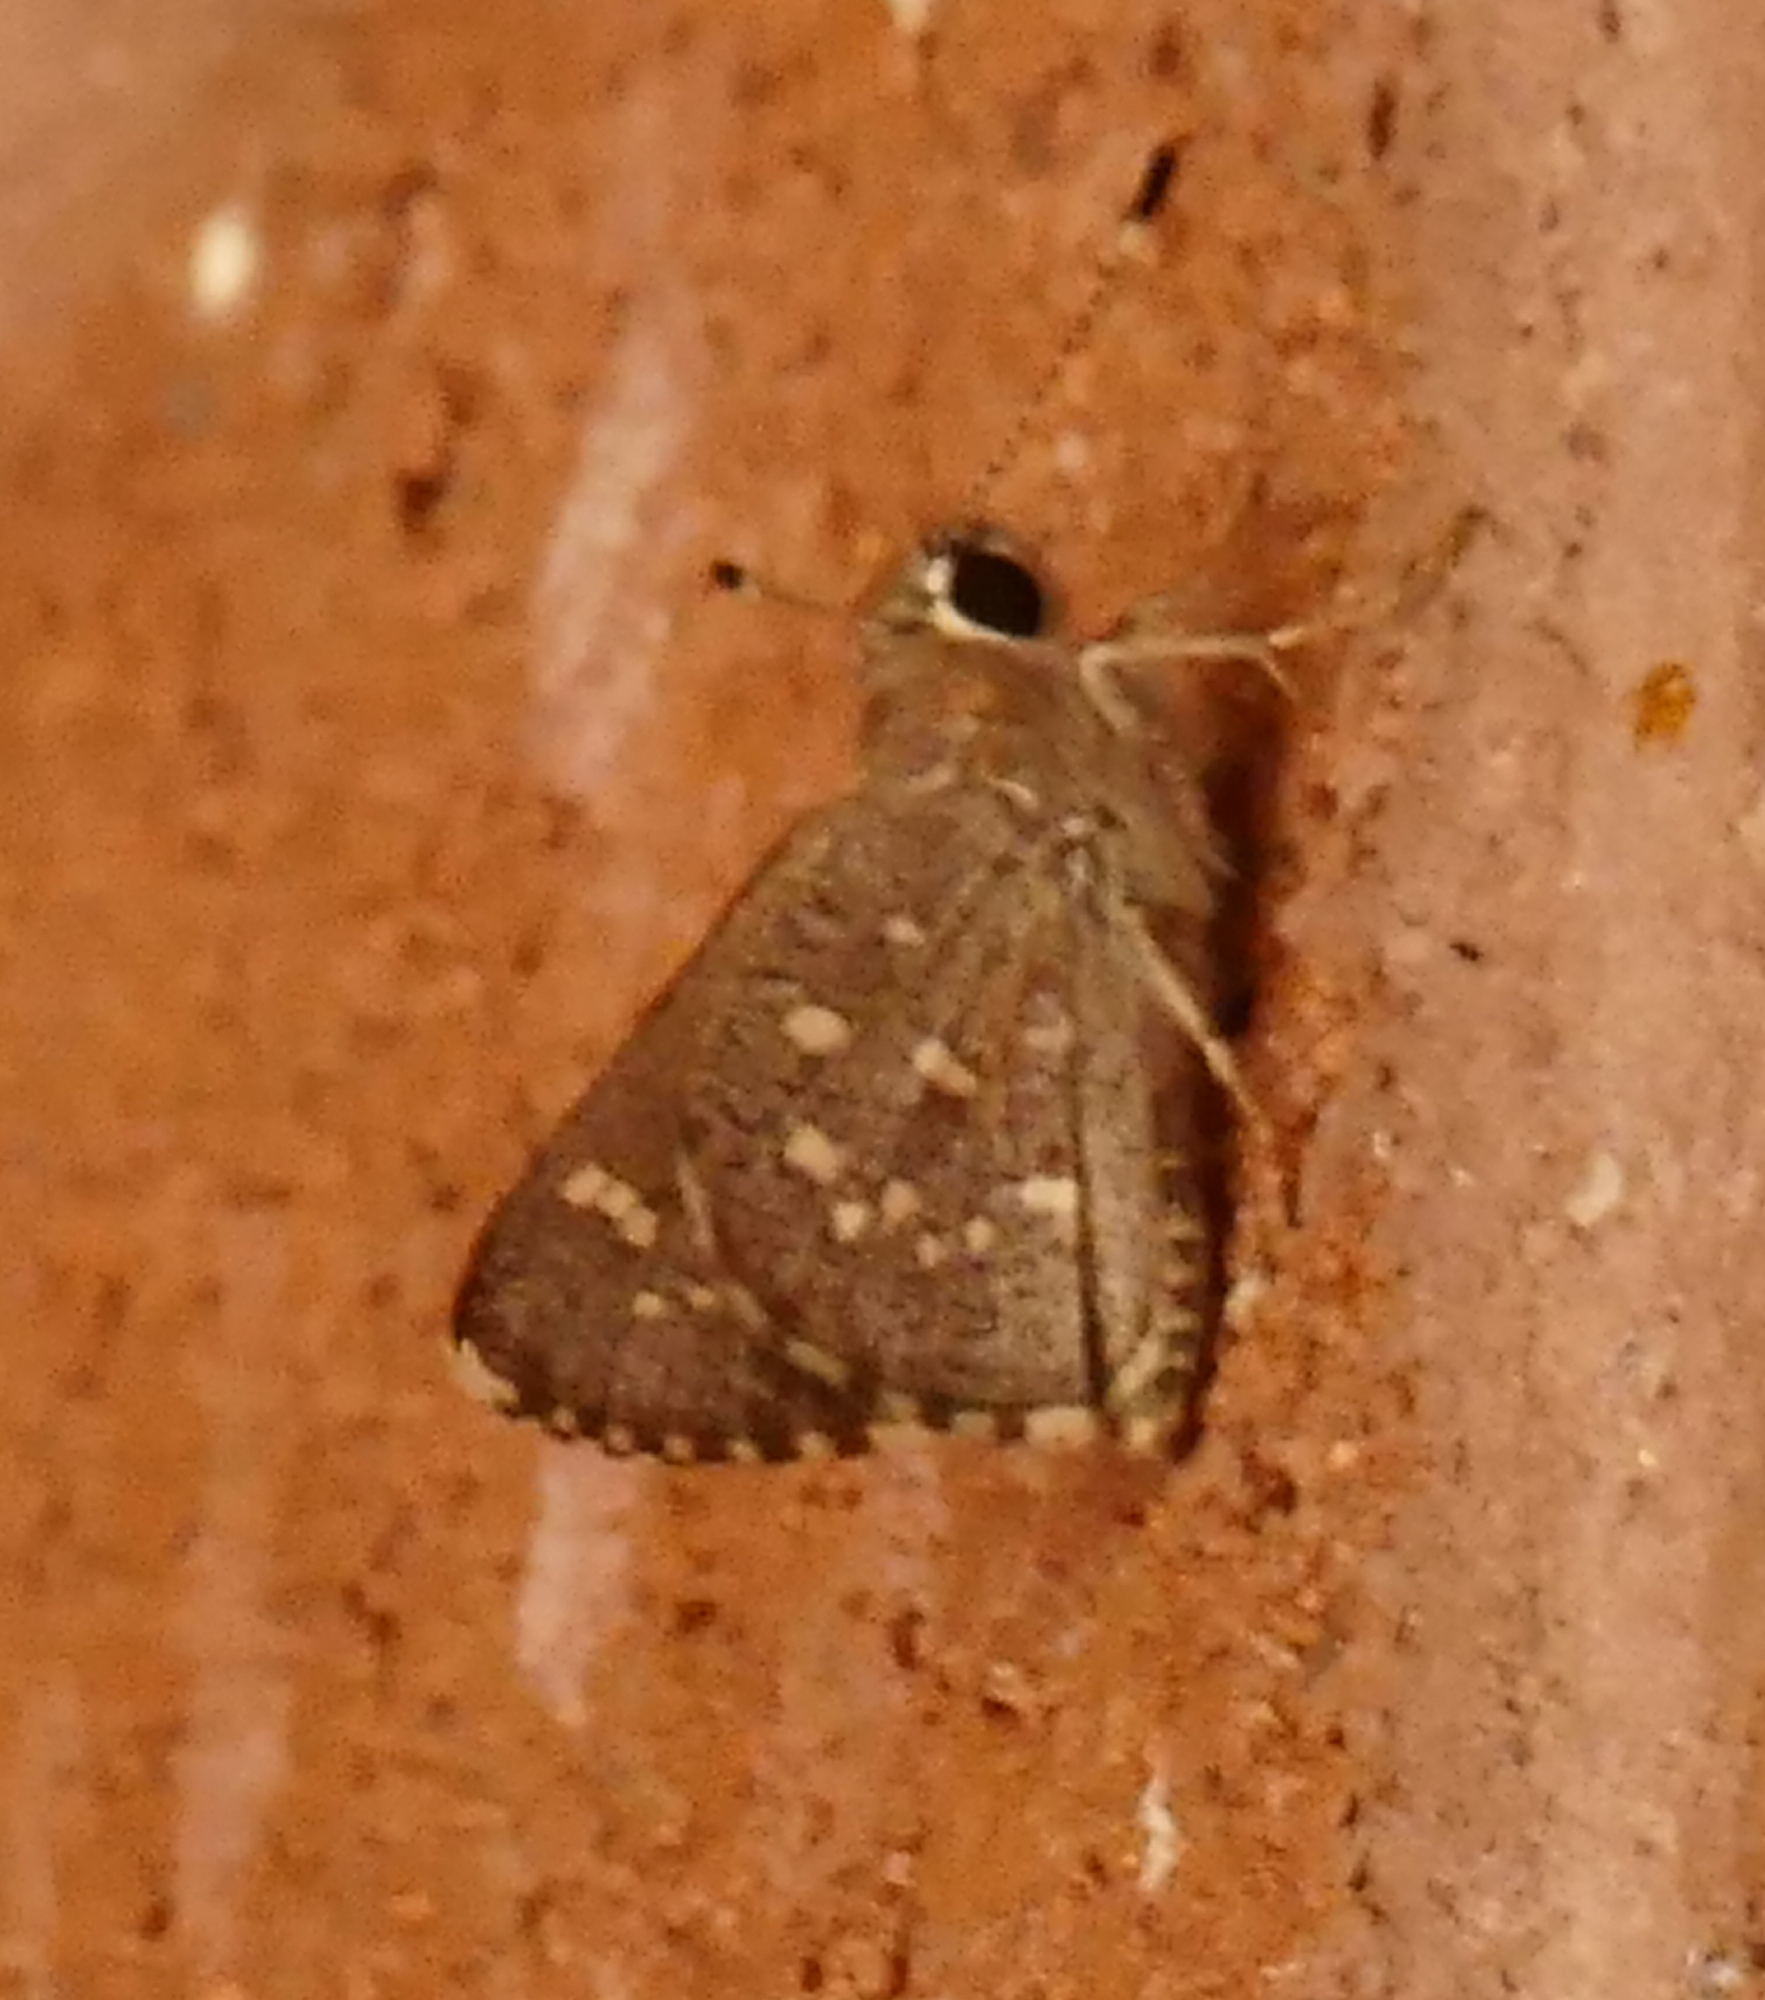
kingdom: Animalia
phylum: Arthropoda
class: Insecta
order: Lepidoptera
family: Hesperiidae
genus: Mastor
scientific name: Mastor tolteca
